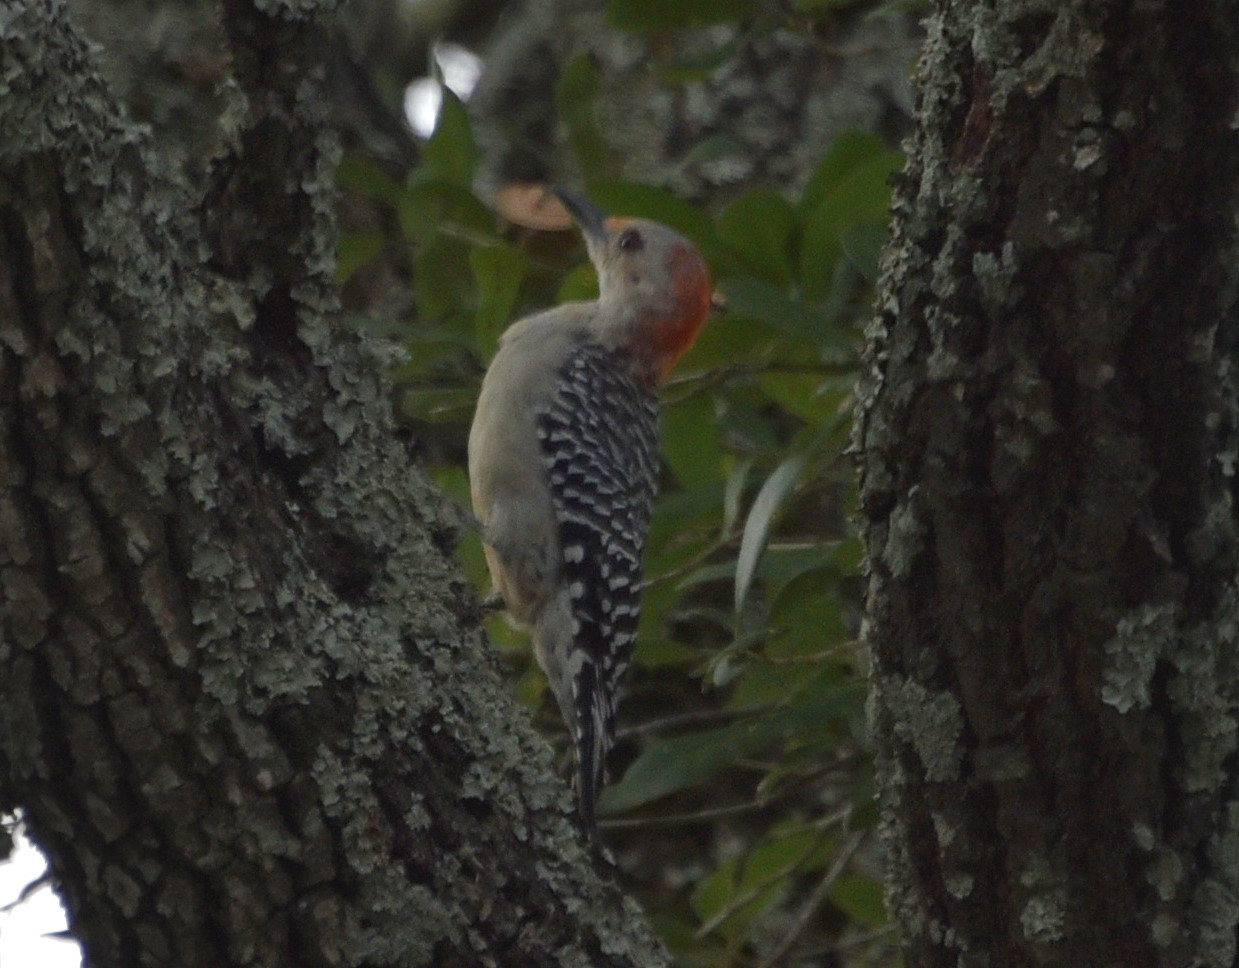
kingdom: Animalia
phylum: Chordata
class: Aves
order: Piciformes
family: Picidae
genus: Melanerpes
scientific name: Melanerpes carolinus
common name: Red-bellied woodpecker
